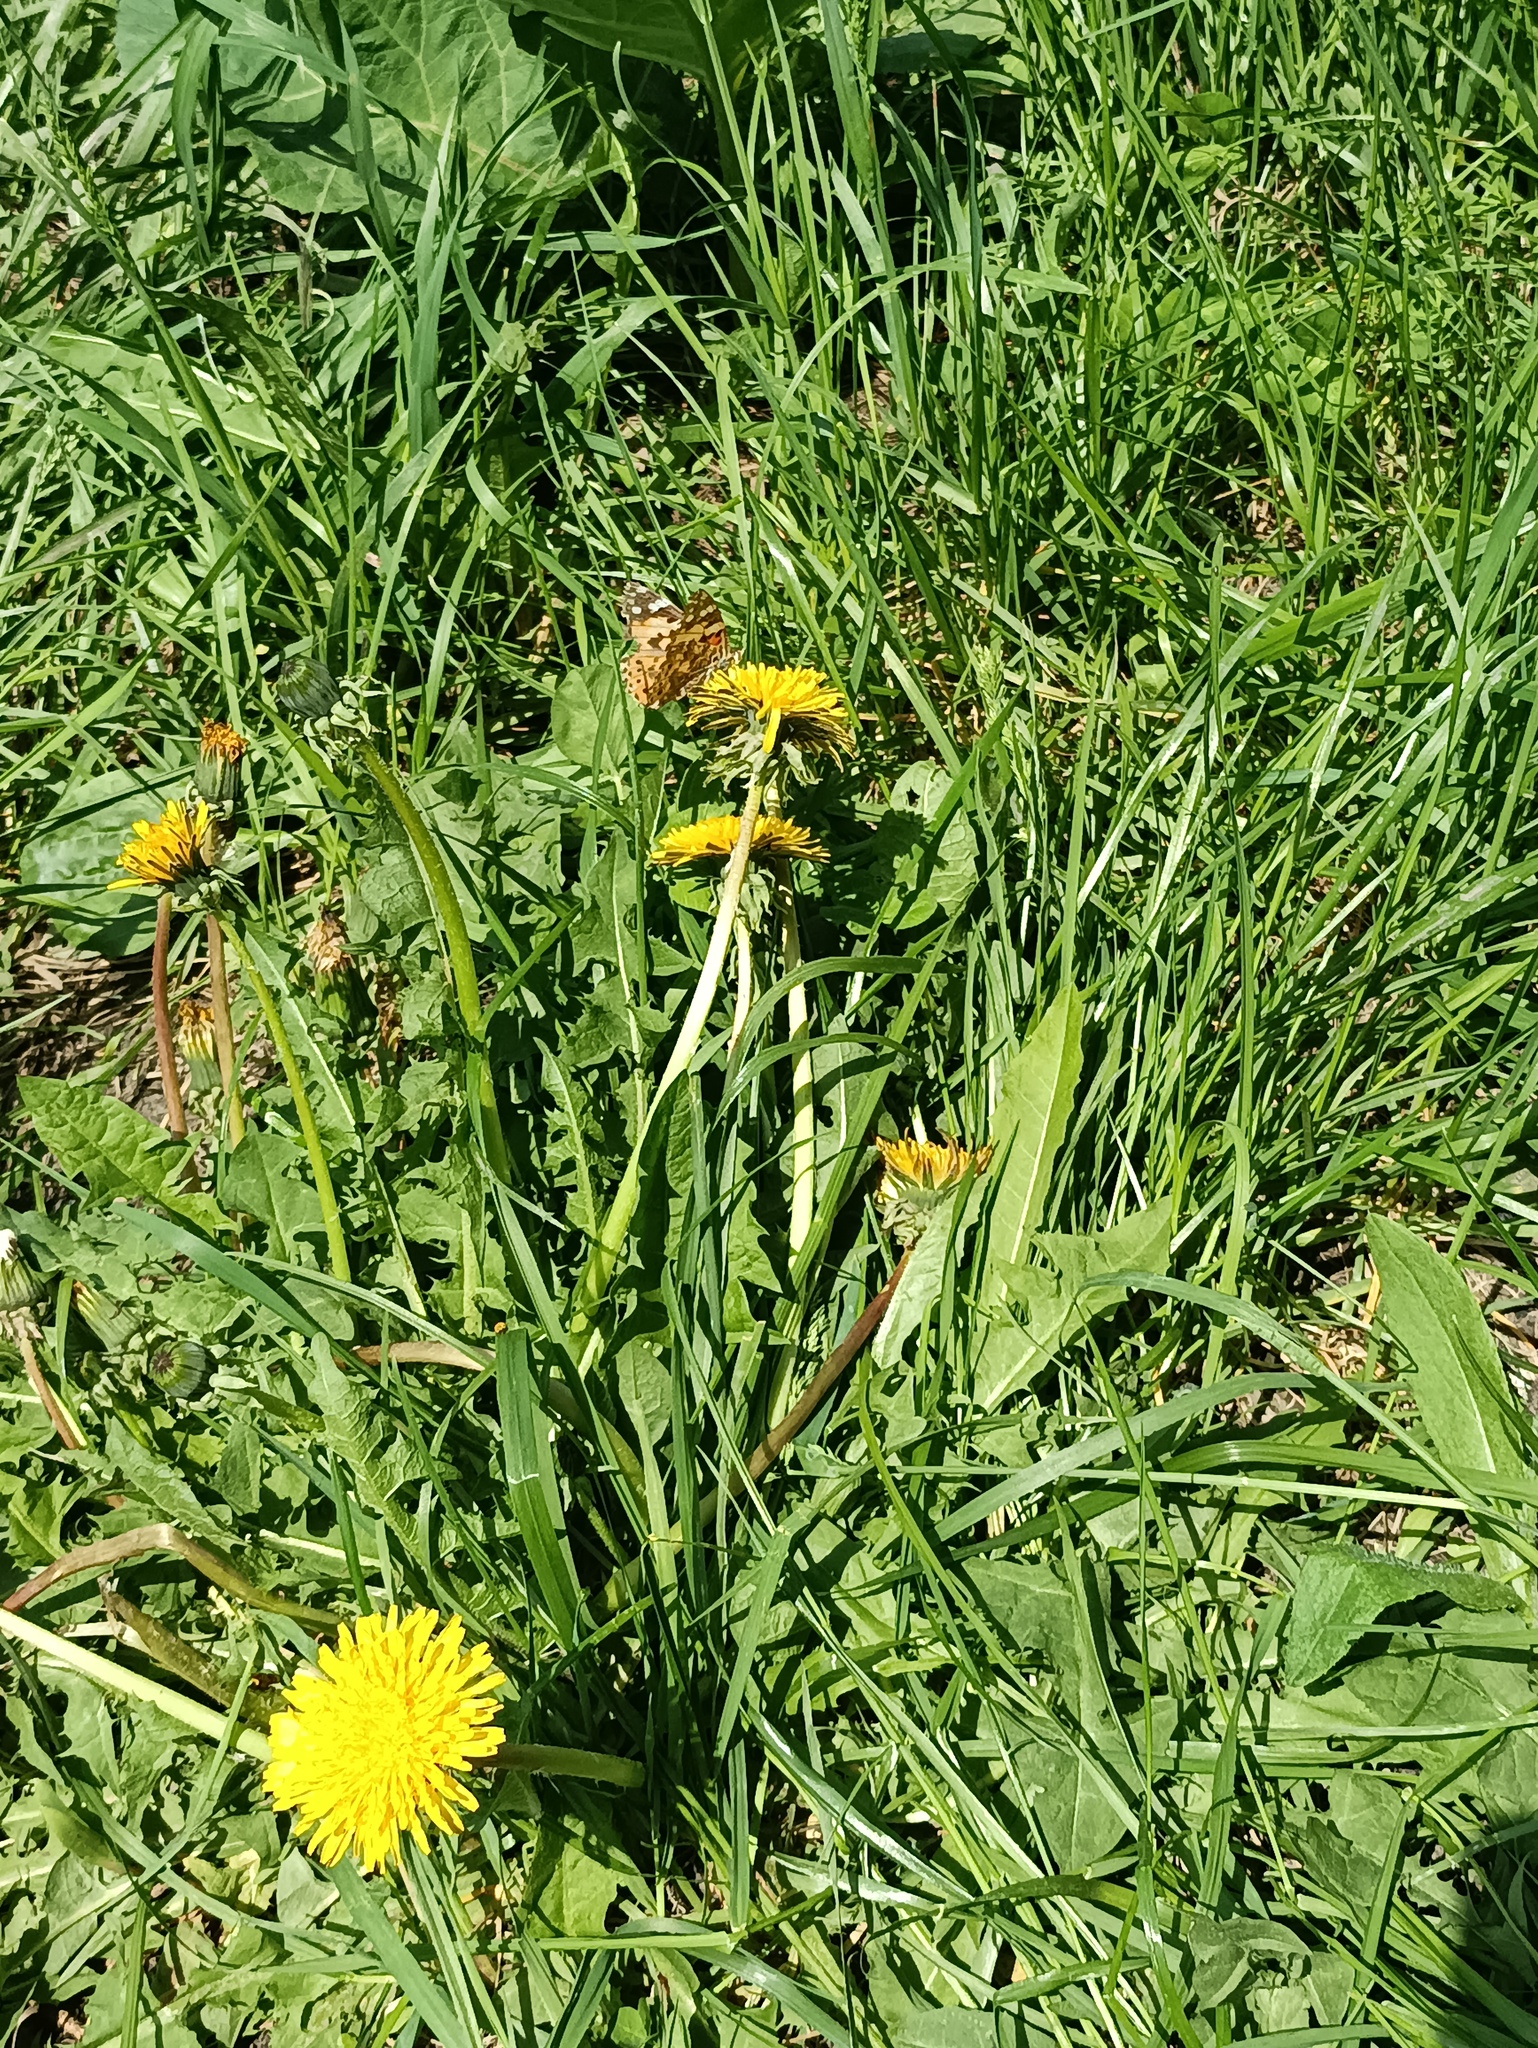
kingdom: Animalia
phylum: Arthropoda
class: Insecta
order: Lepidoptera
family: Nymphalidae
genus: Vanessa
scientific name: Vanessa cardui
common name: Painted lady
